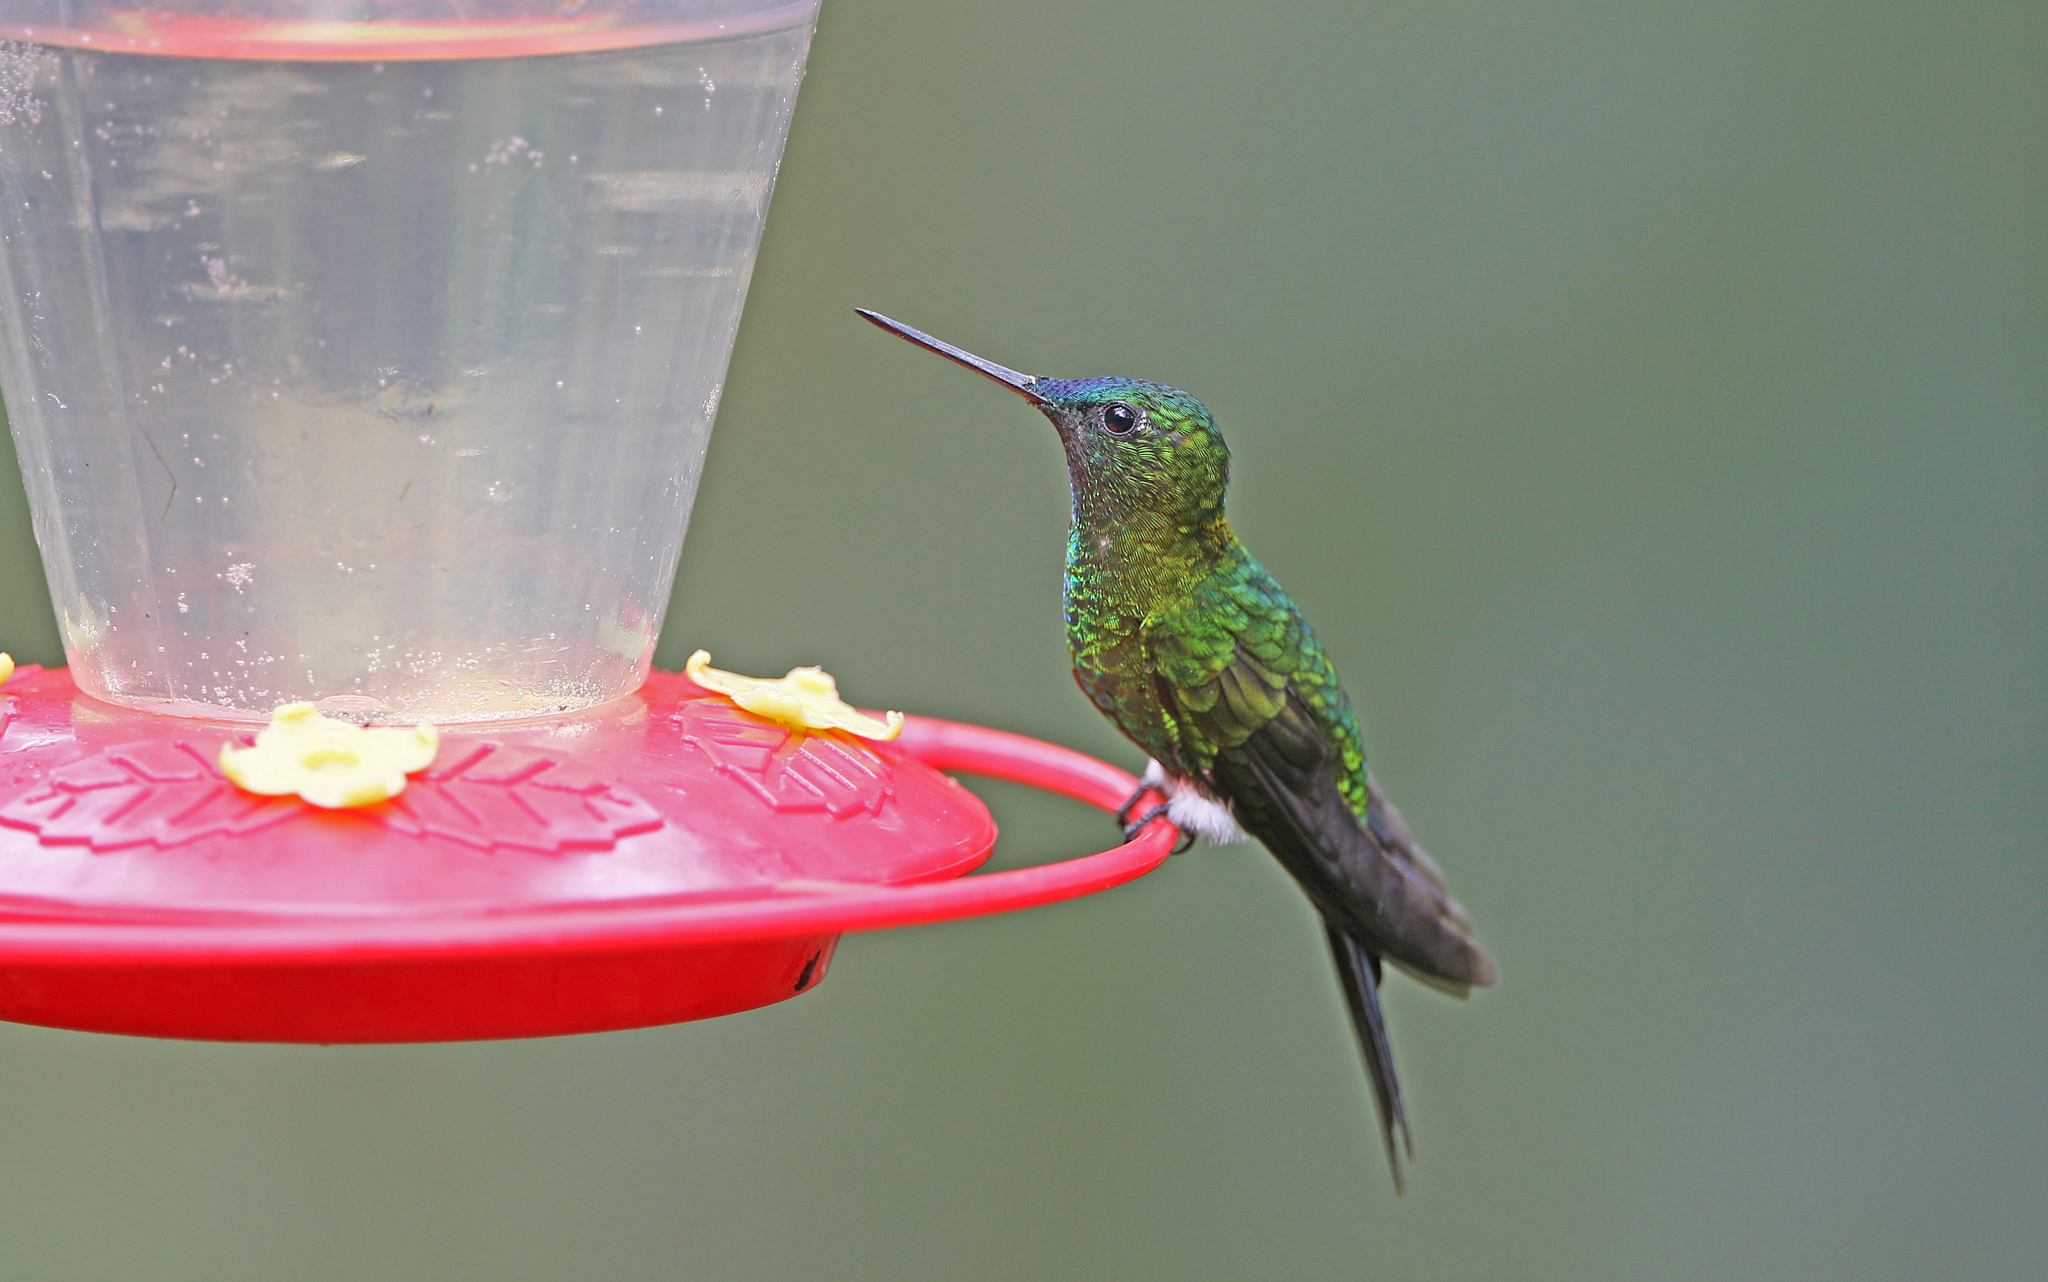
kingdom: Animalia
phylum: Chordata
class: Aves
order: Apodiformes
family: Trochilidae
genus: Eriocnemis
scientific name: Eriocnemis mosquera
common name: Golden-breasted puffleg
